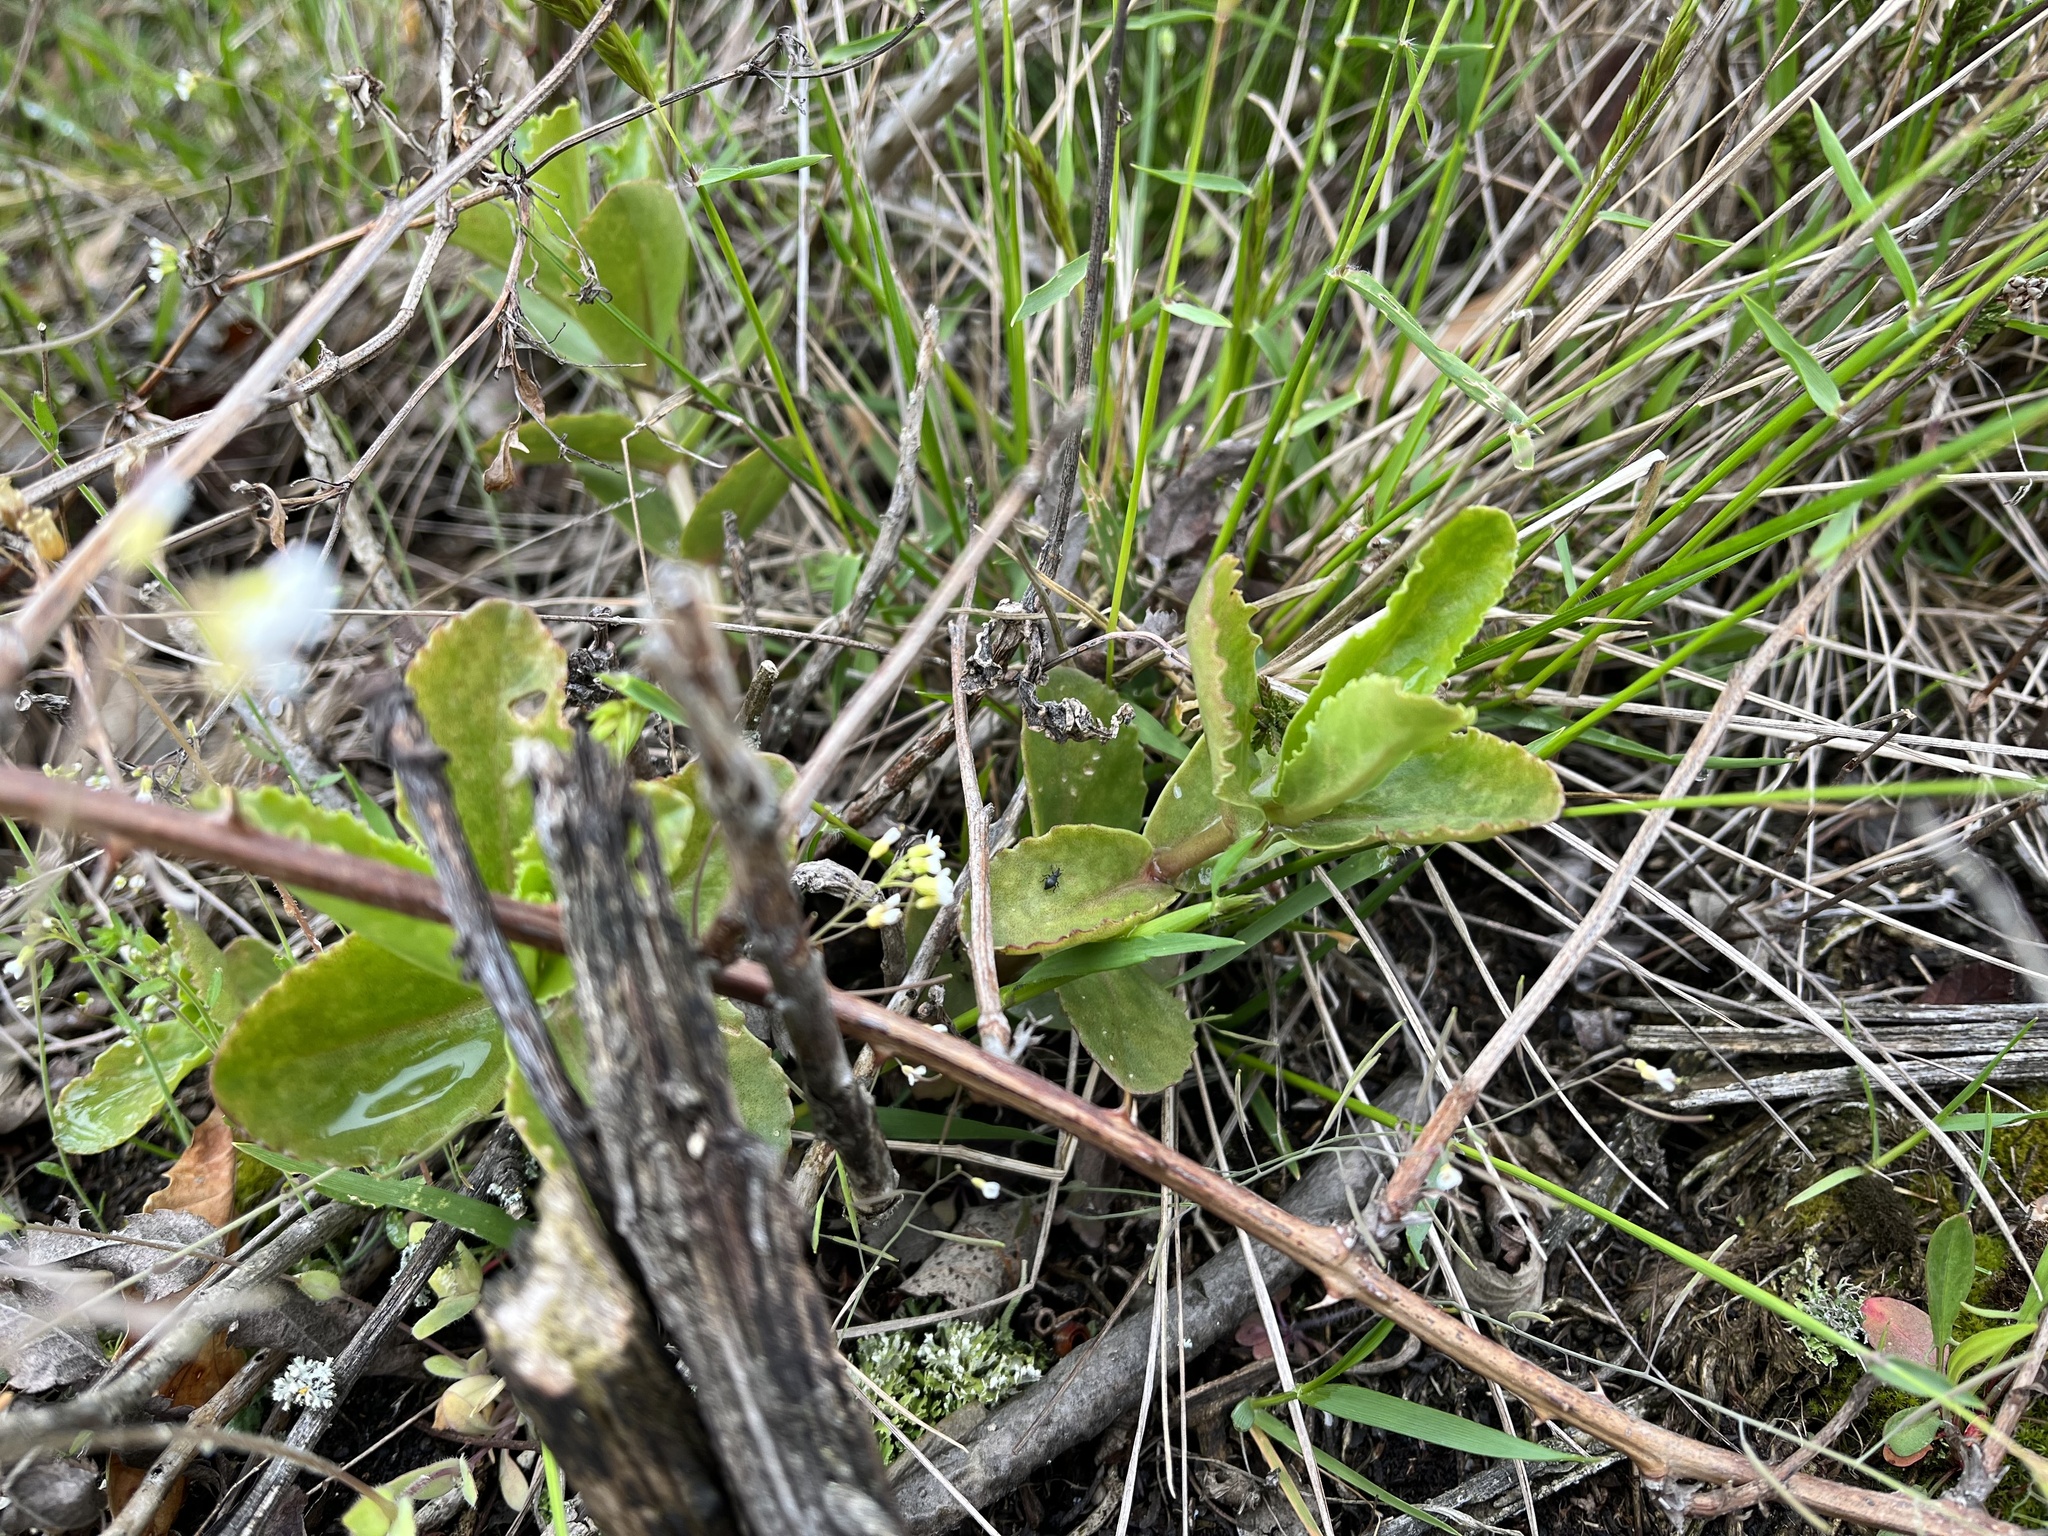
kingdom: Plantae
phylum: Tracheophyta
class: Magnoliopsida
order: Saxifragales
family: Crassulaceae
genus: Hylotelephium
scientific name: Hylotelephium maximum
